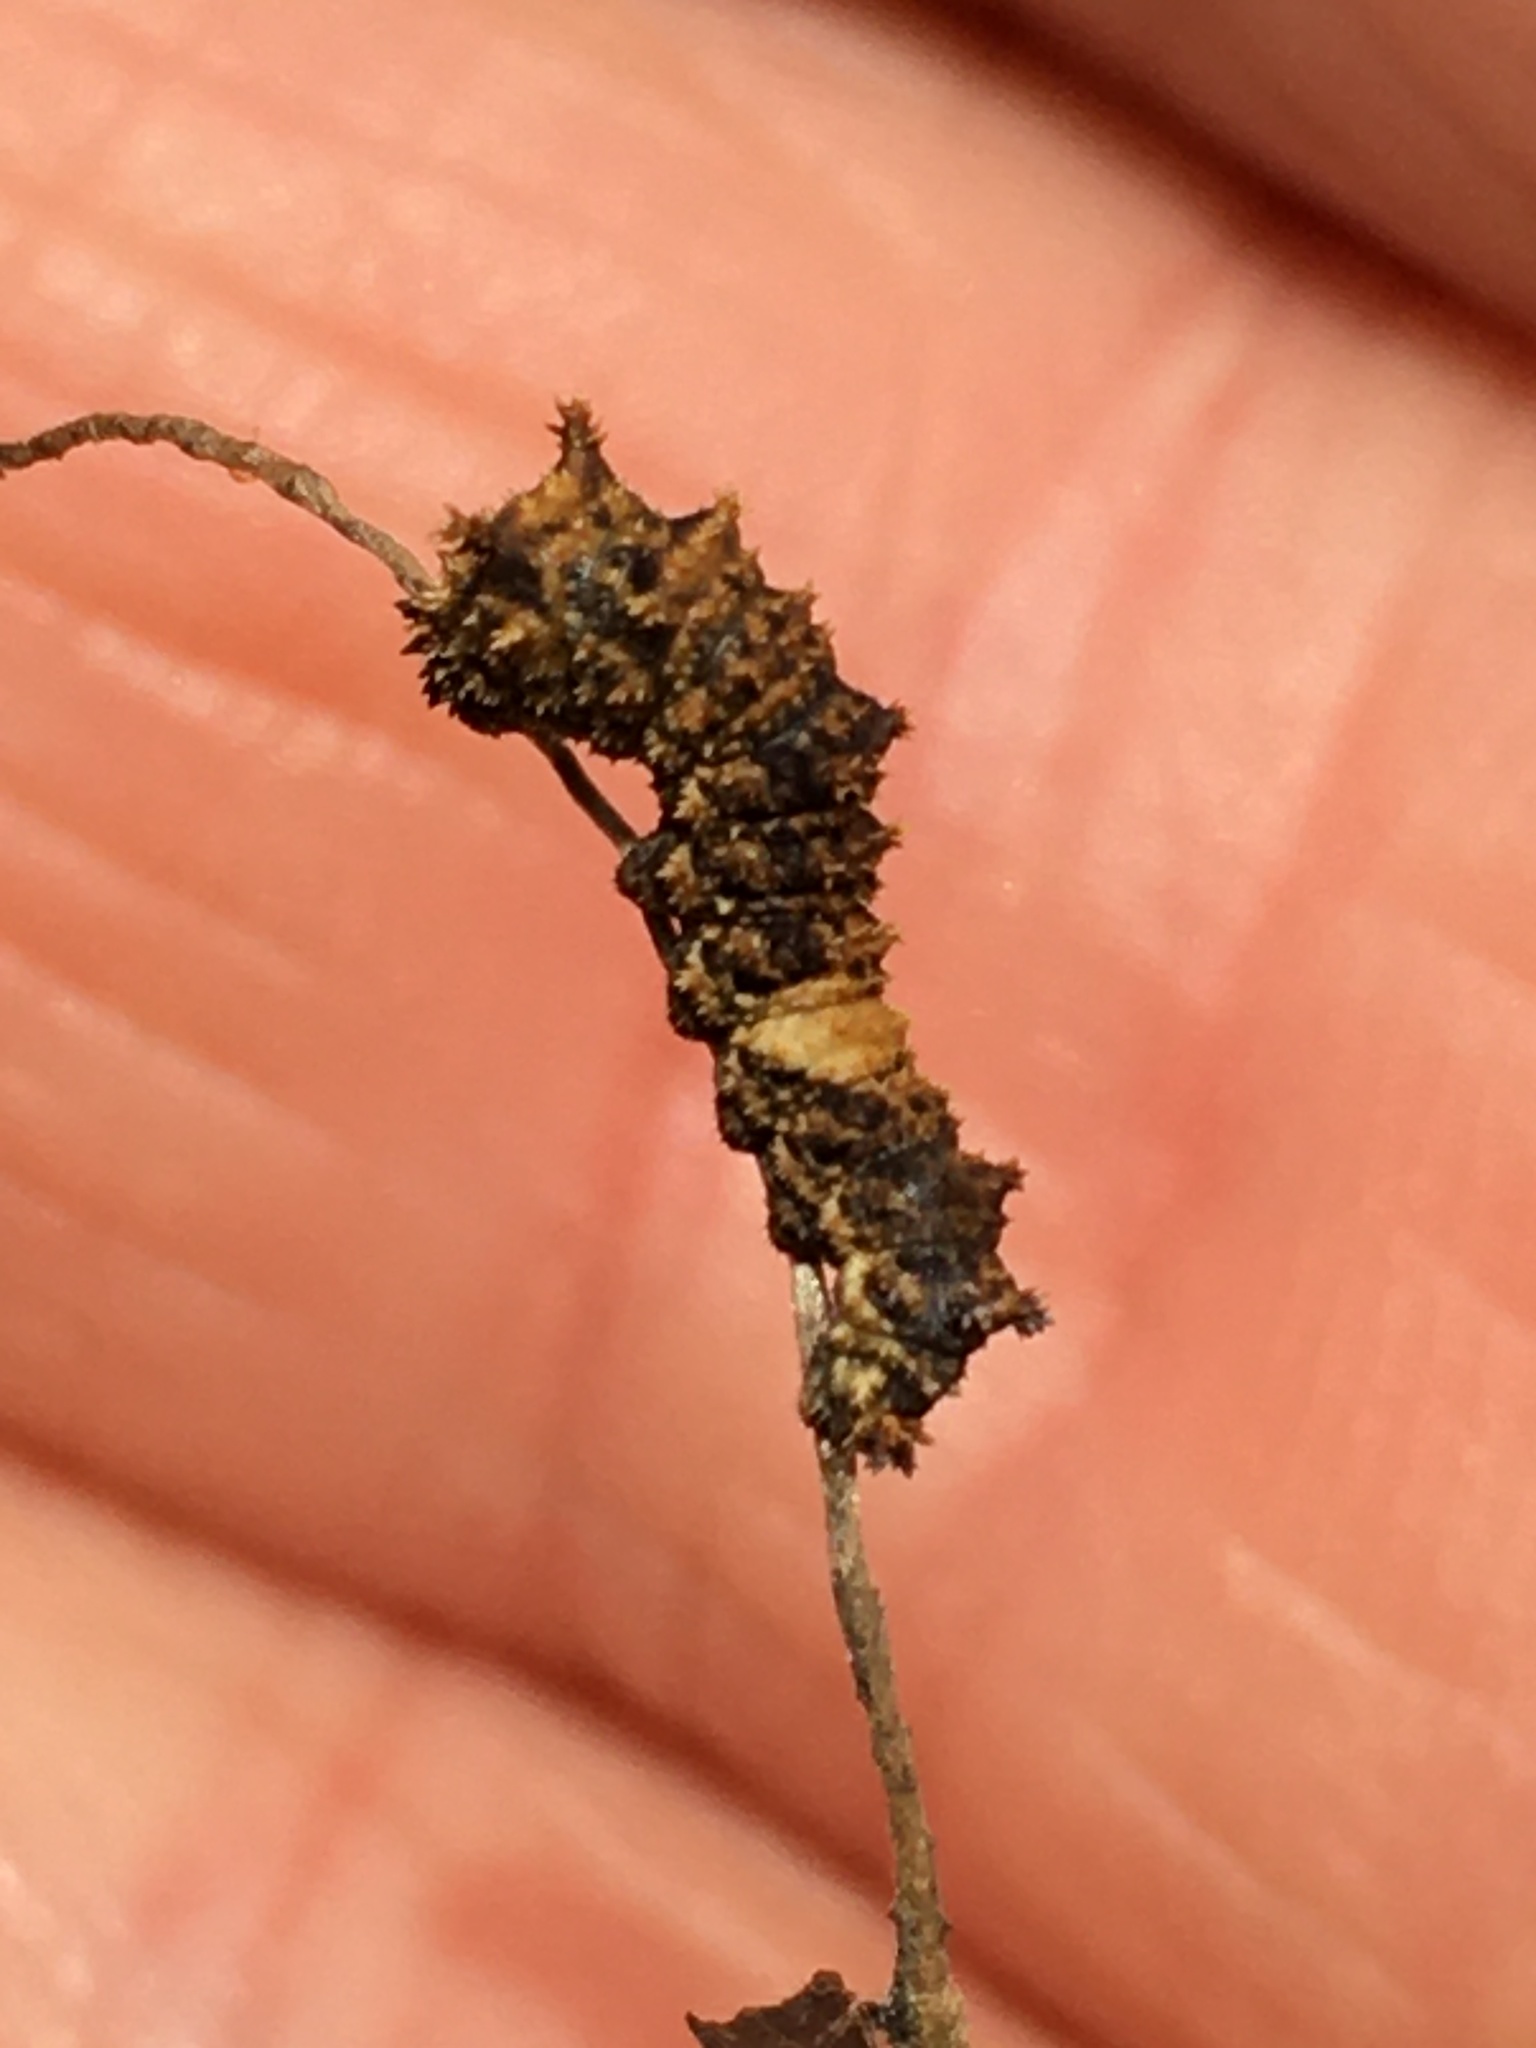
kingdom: Animalia
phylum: Arthropoda
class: Insecta
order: Lepidoptera
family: Nymphalidae
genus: Limenitis
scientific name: Limenitis archippus
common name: Viceroy
